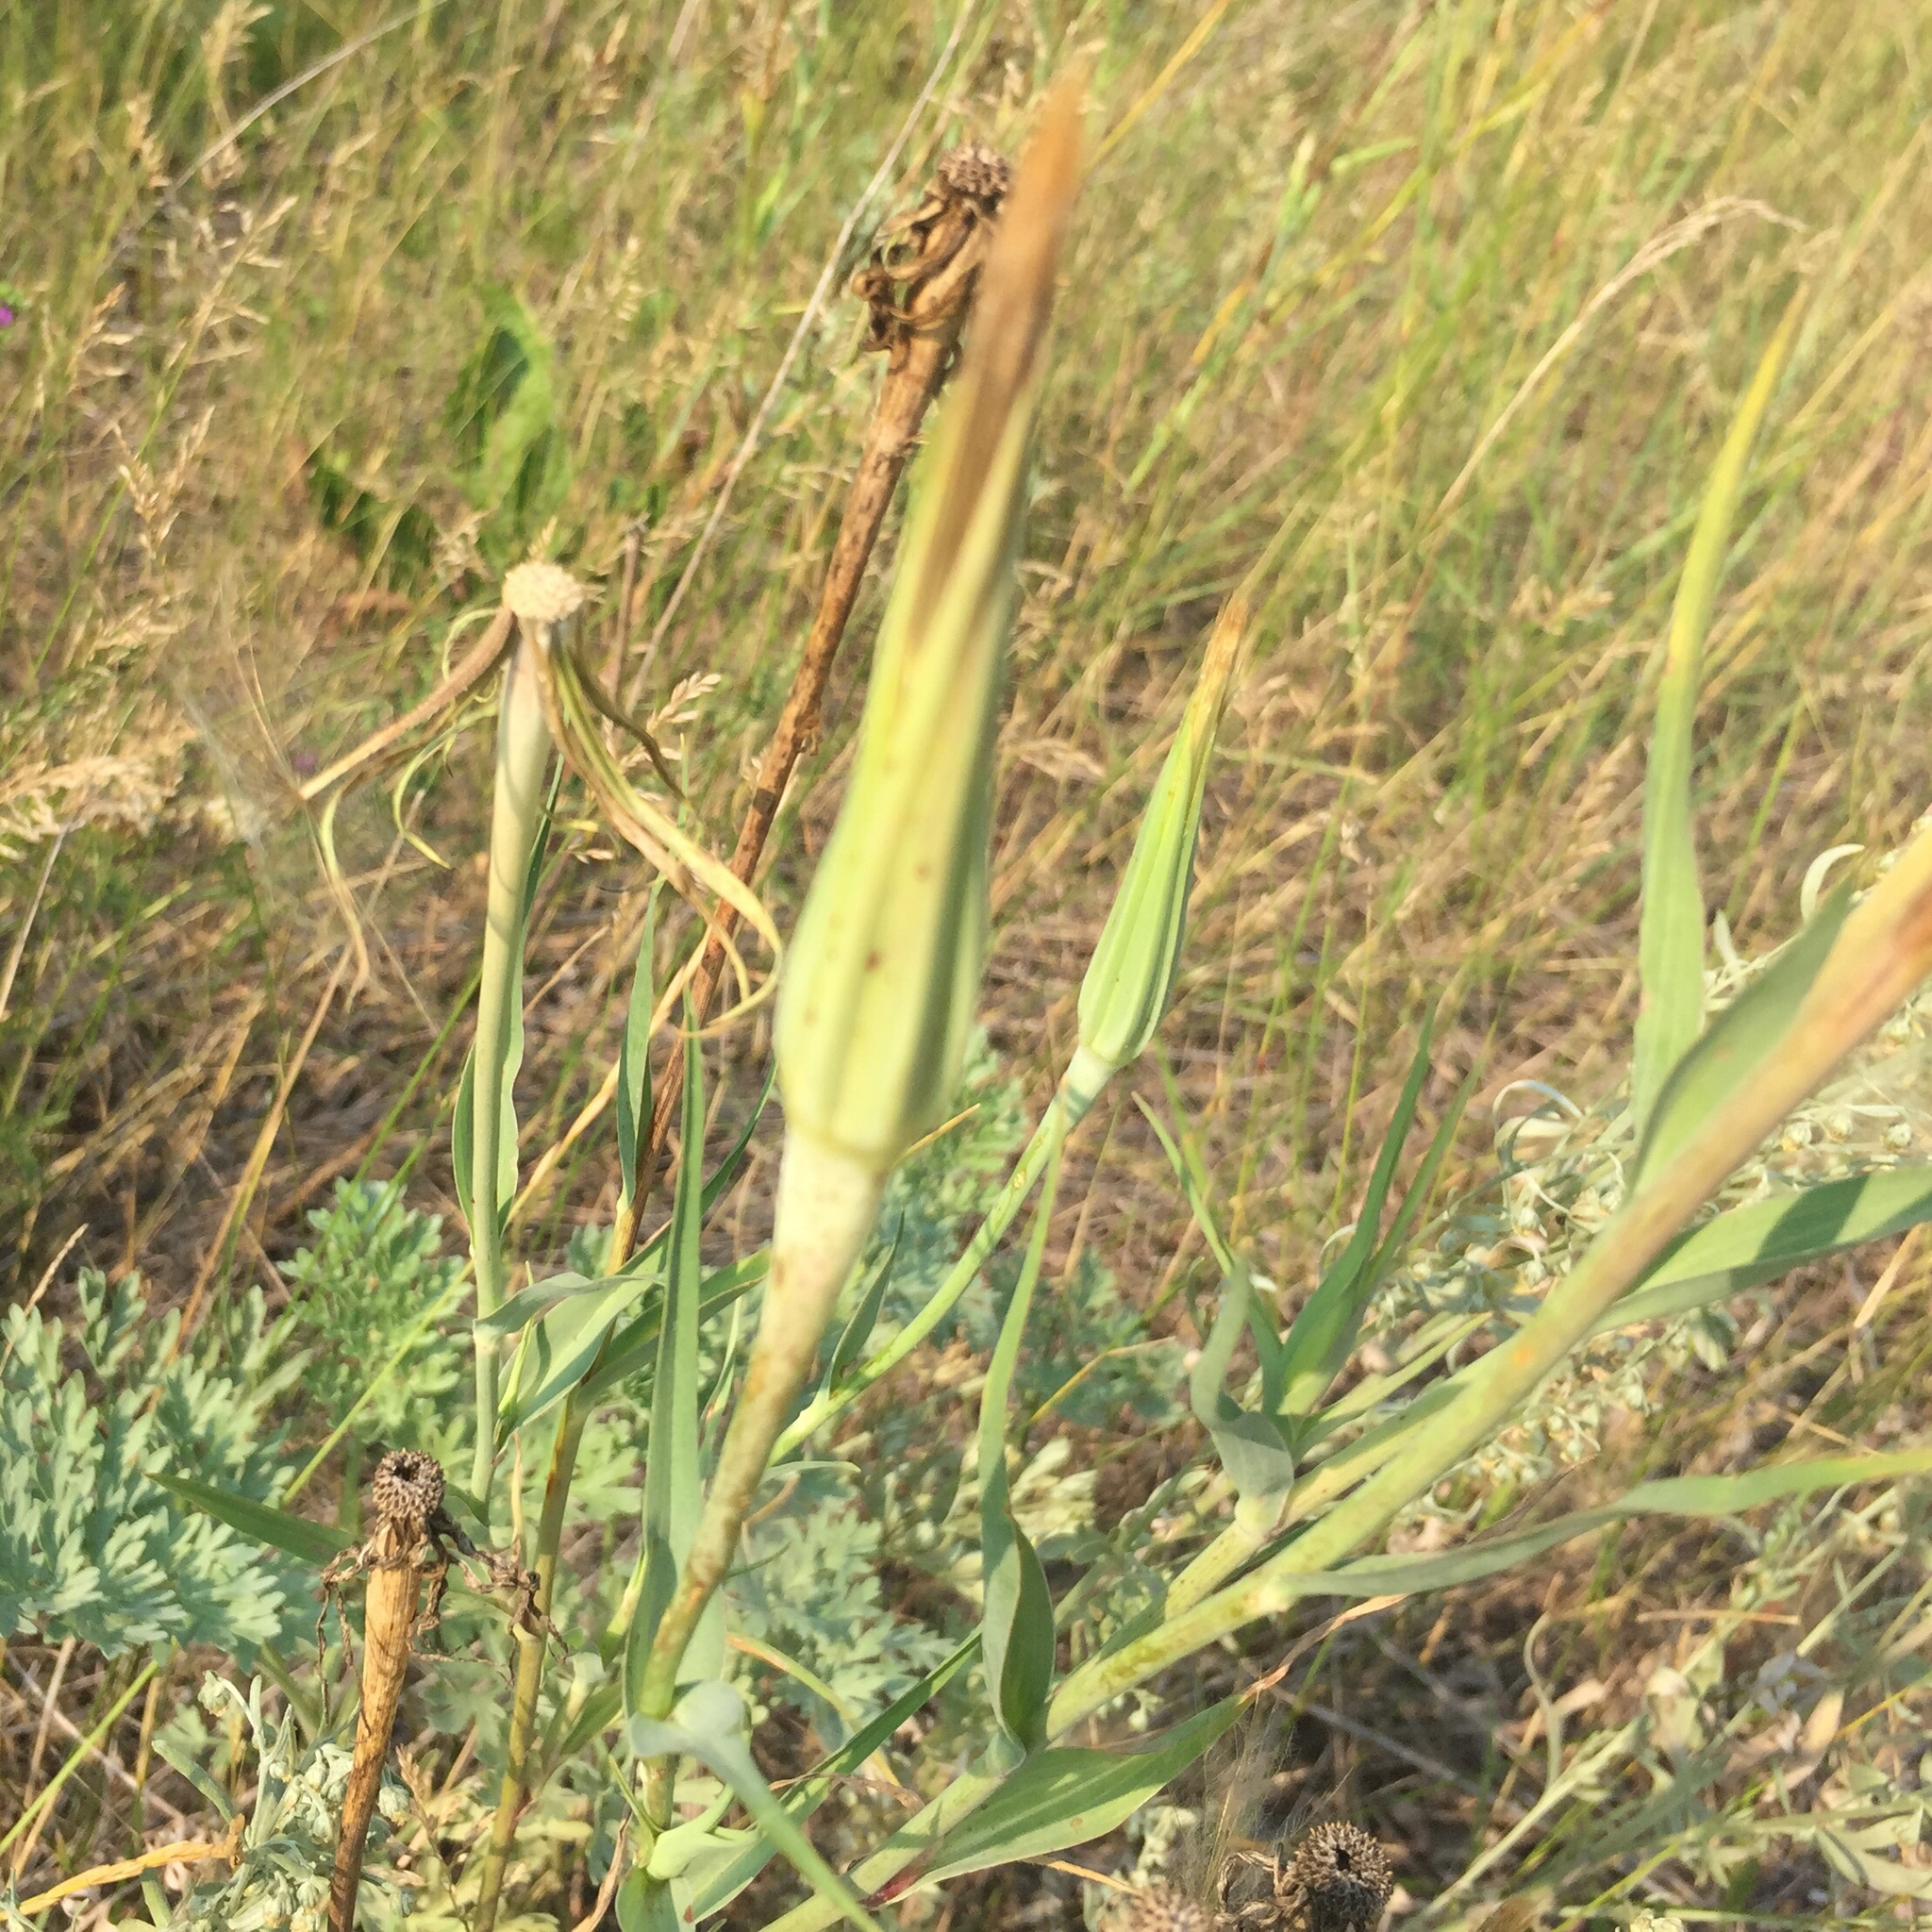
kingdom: Plantae
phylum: Tracheophyta
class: Magnoliopsida
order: Asterales
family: Asteraceae
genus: Tragopogon
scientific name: Tragopogon dubius
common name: Yellow salsify
